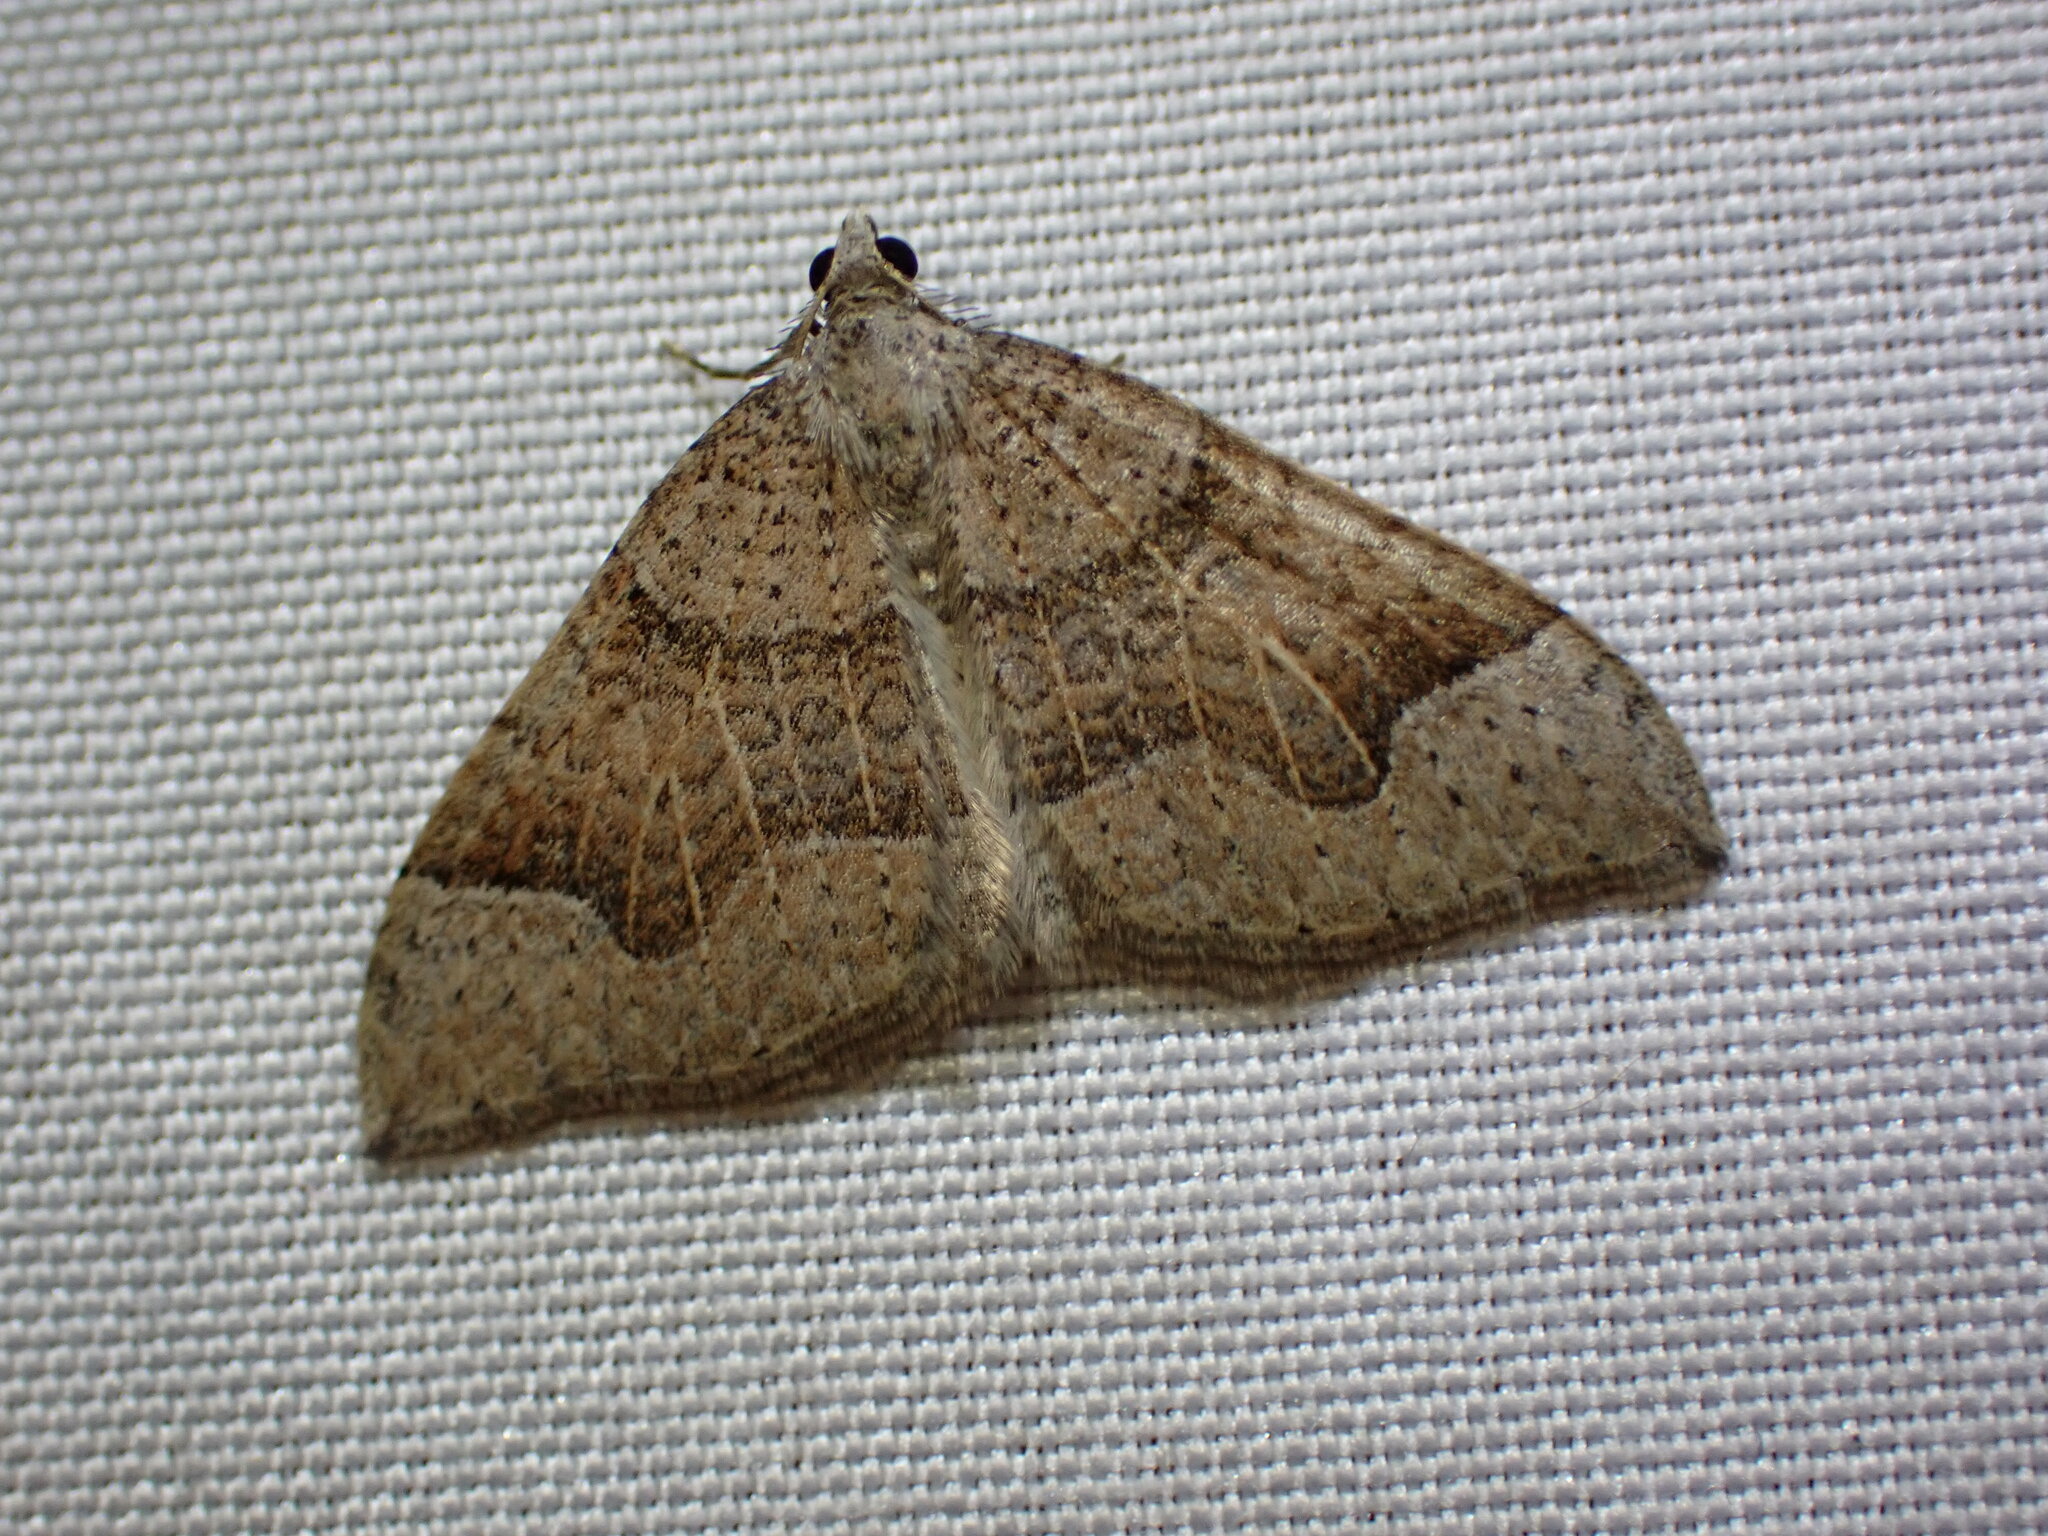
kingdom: Animalia
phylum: Arthropoda
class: Insecta
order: Lepidoptera
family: Geometridae
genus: Zenophleps
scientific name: Zenophleps lignicolorata
